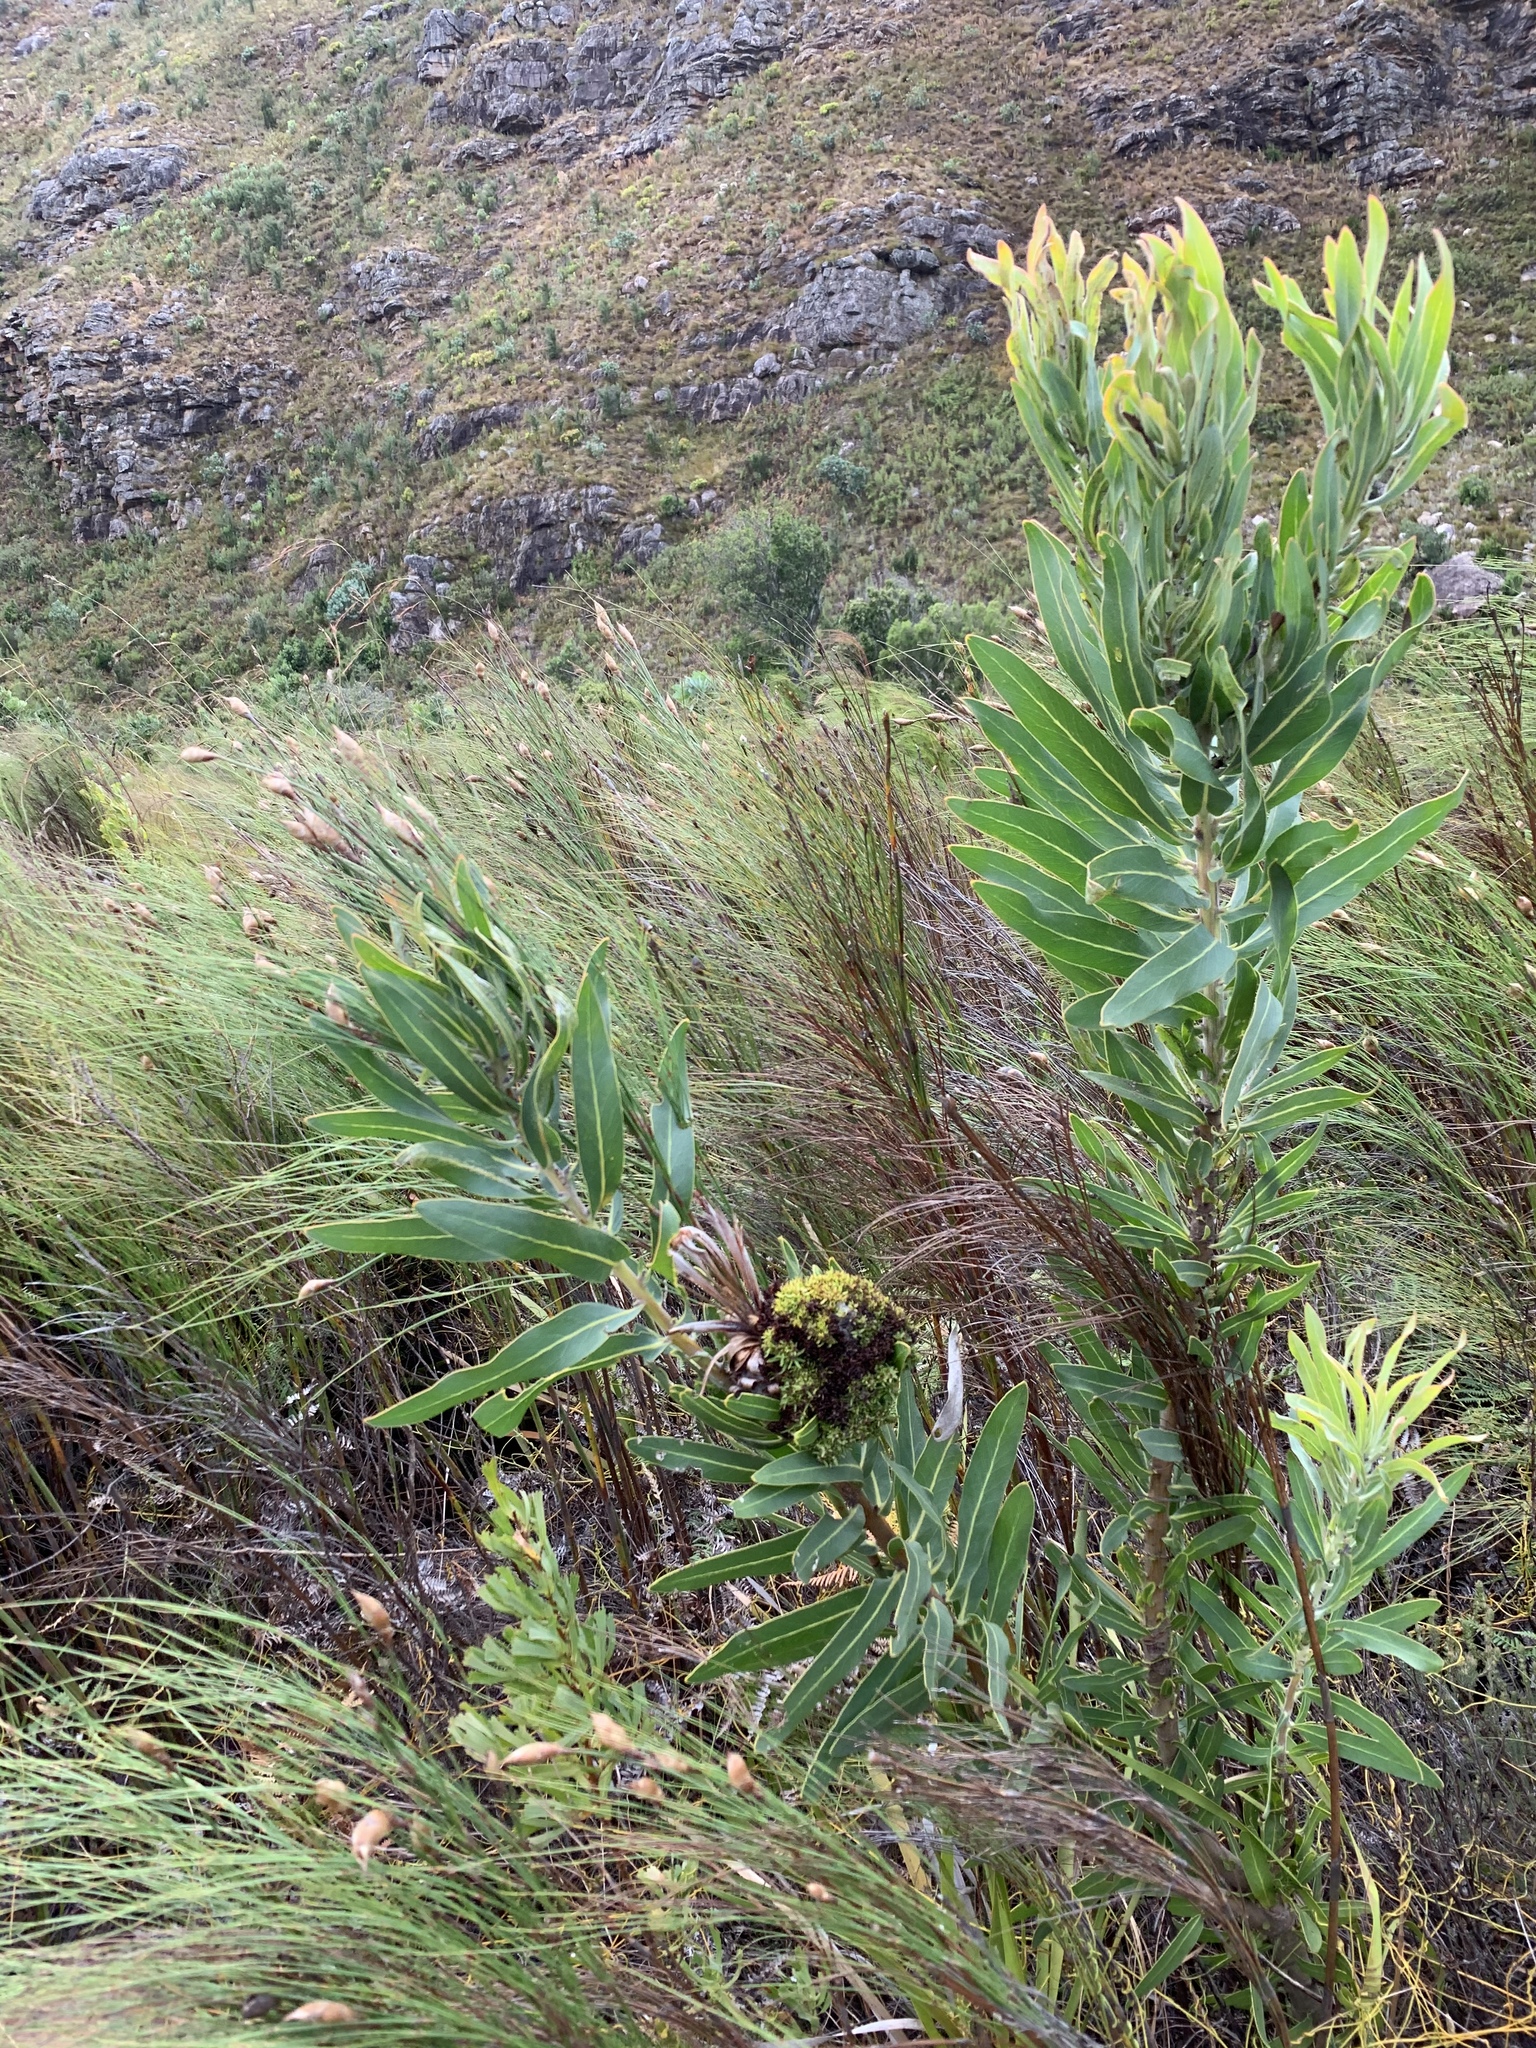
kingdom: Bacteria
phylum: Firmicutes
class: Bacilli
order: Acholeplasmatales
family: Acholeplasmataceae
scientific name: Acholeplasmataceae
